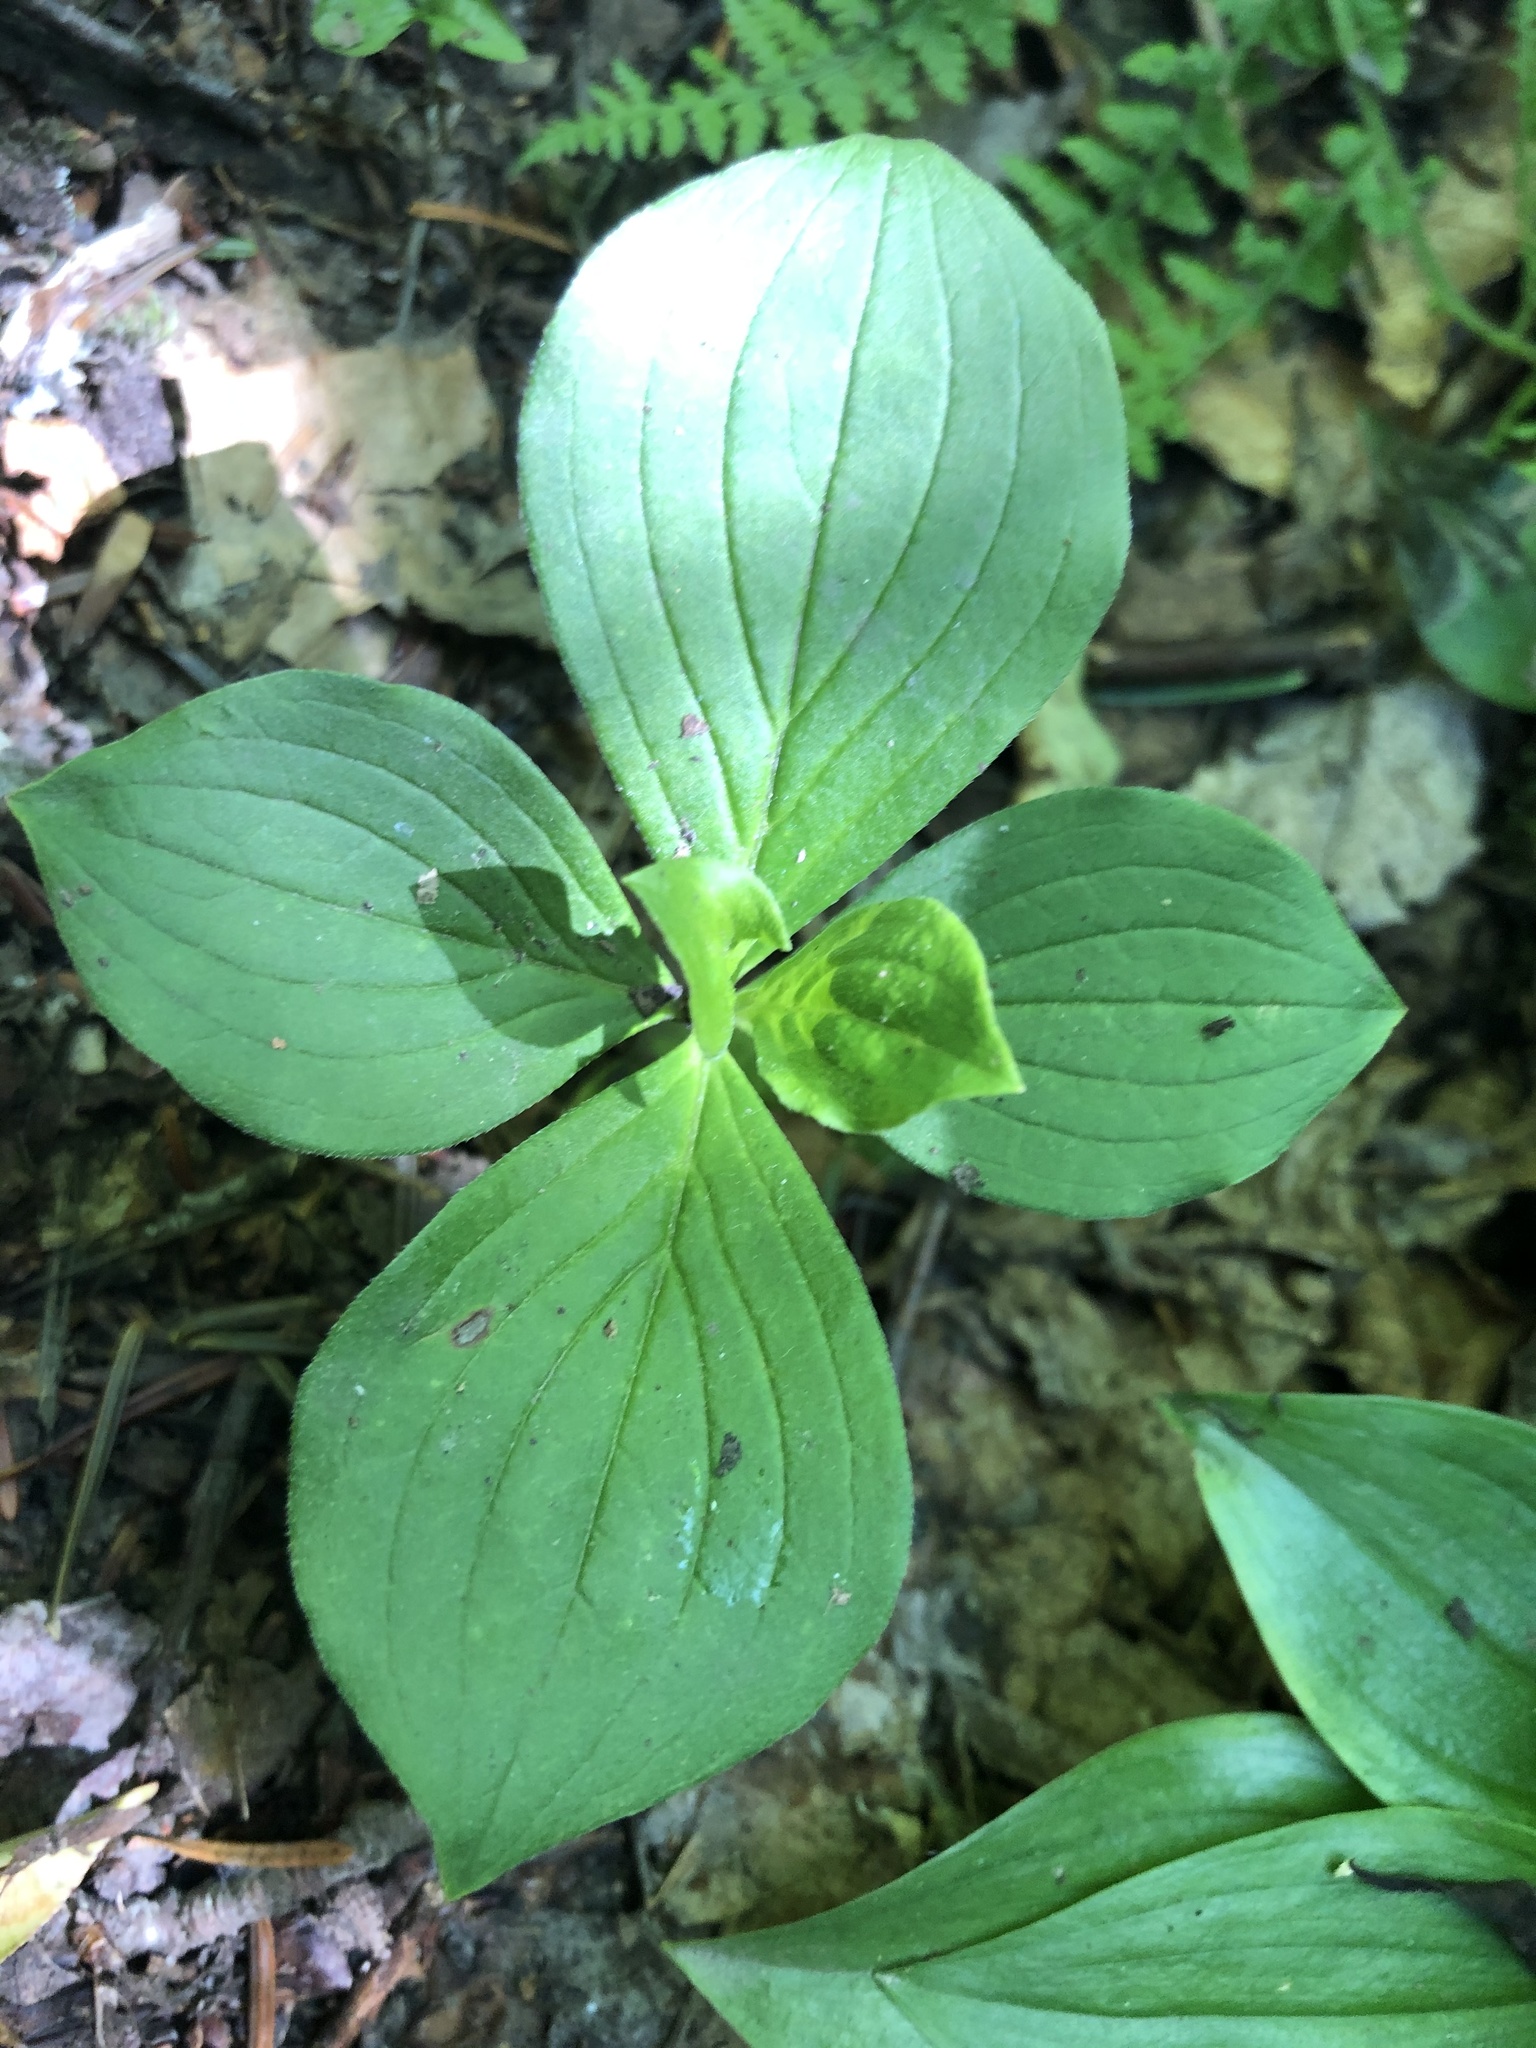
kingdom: Plantae
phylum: Tracheophyta
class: Magnoliopsida
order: Cornales
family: Cornaceae
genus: Cornus
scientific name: Cornus canadensis
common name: Creeping dogwood
